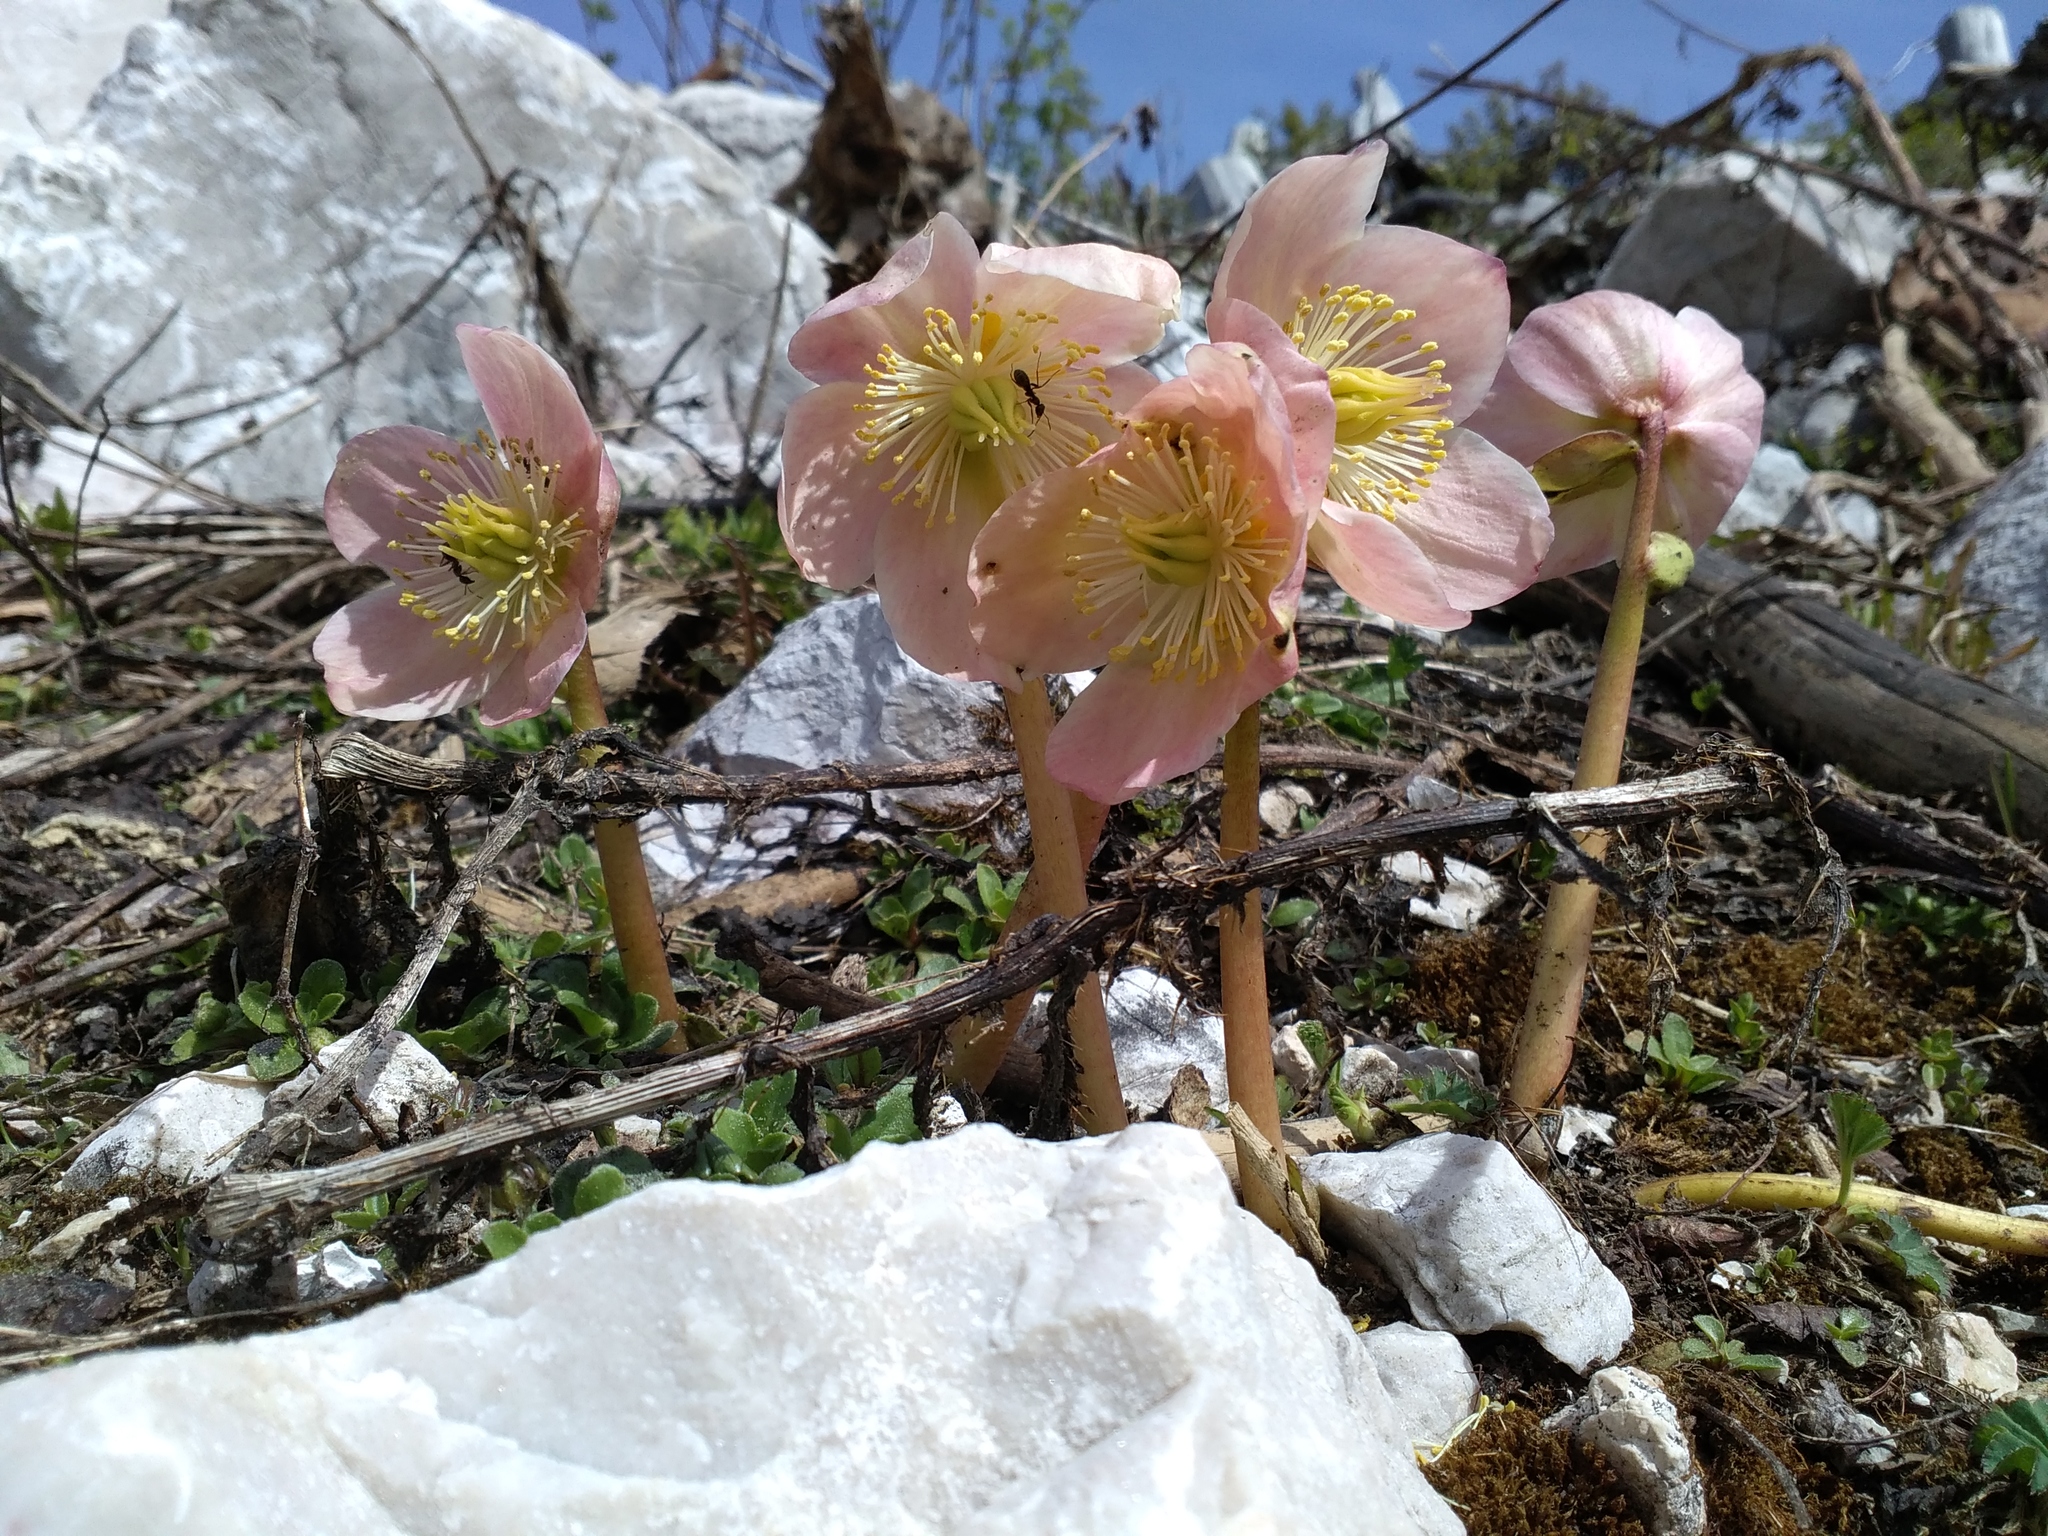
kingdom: Plantae
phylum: Tracheophyta
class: Magnoliopsida
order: Ranunculales
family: Ranunculaceae
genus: Helleborus
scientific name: Helleborus niger
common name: Black hellebore
